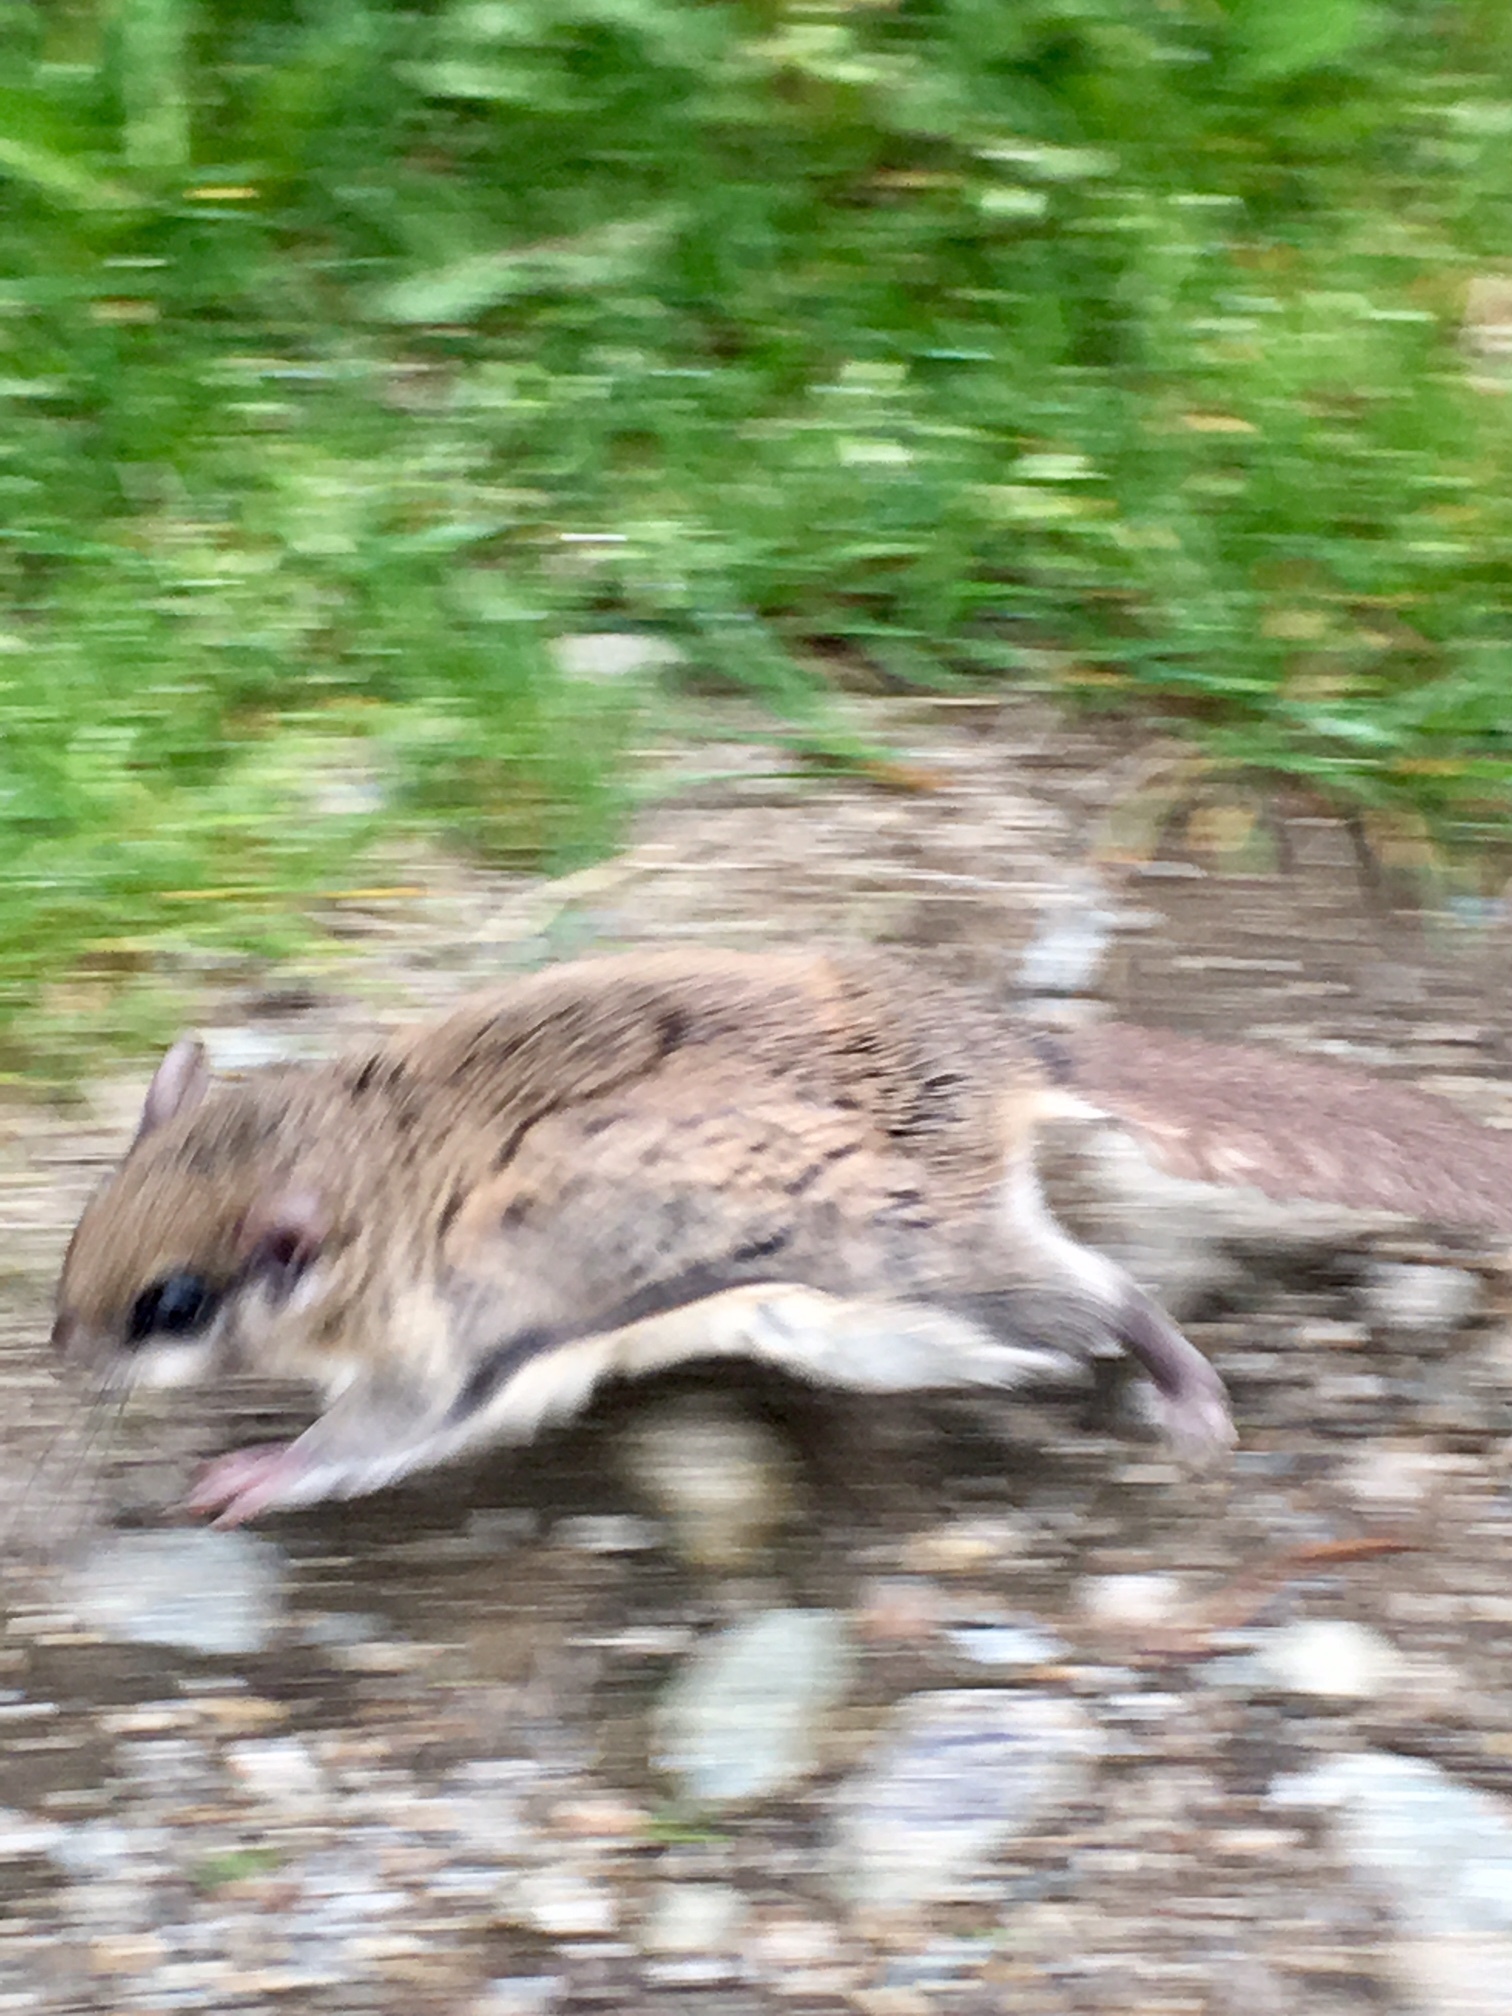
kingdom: Animalia
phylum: Chordata
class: Mammalia
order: Rodentia
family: Sciuridae
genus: Glaucomys
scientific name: Glaucomys sabrinus
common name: Northern flying squirrel
